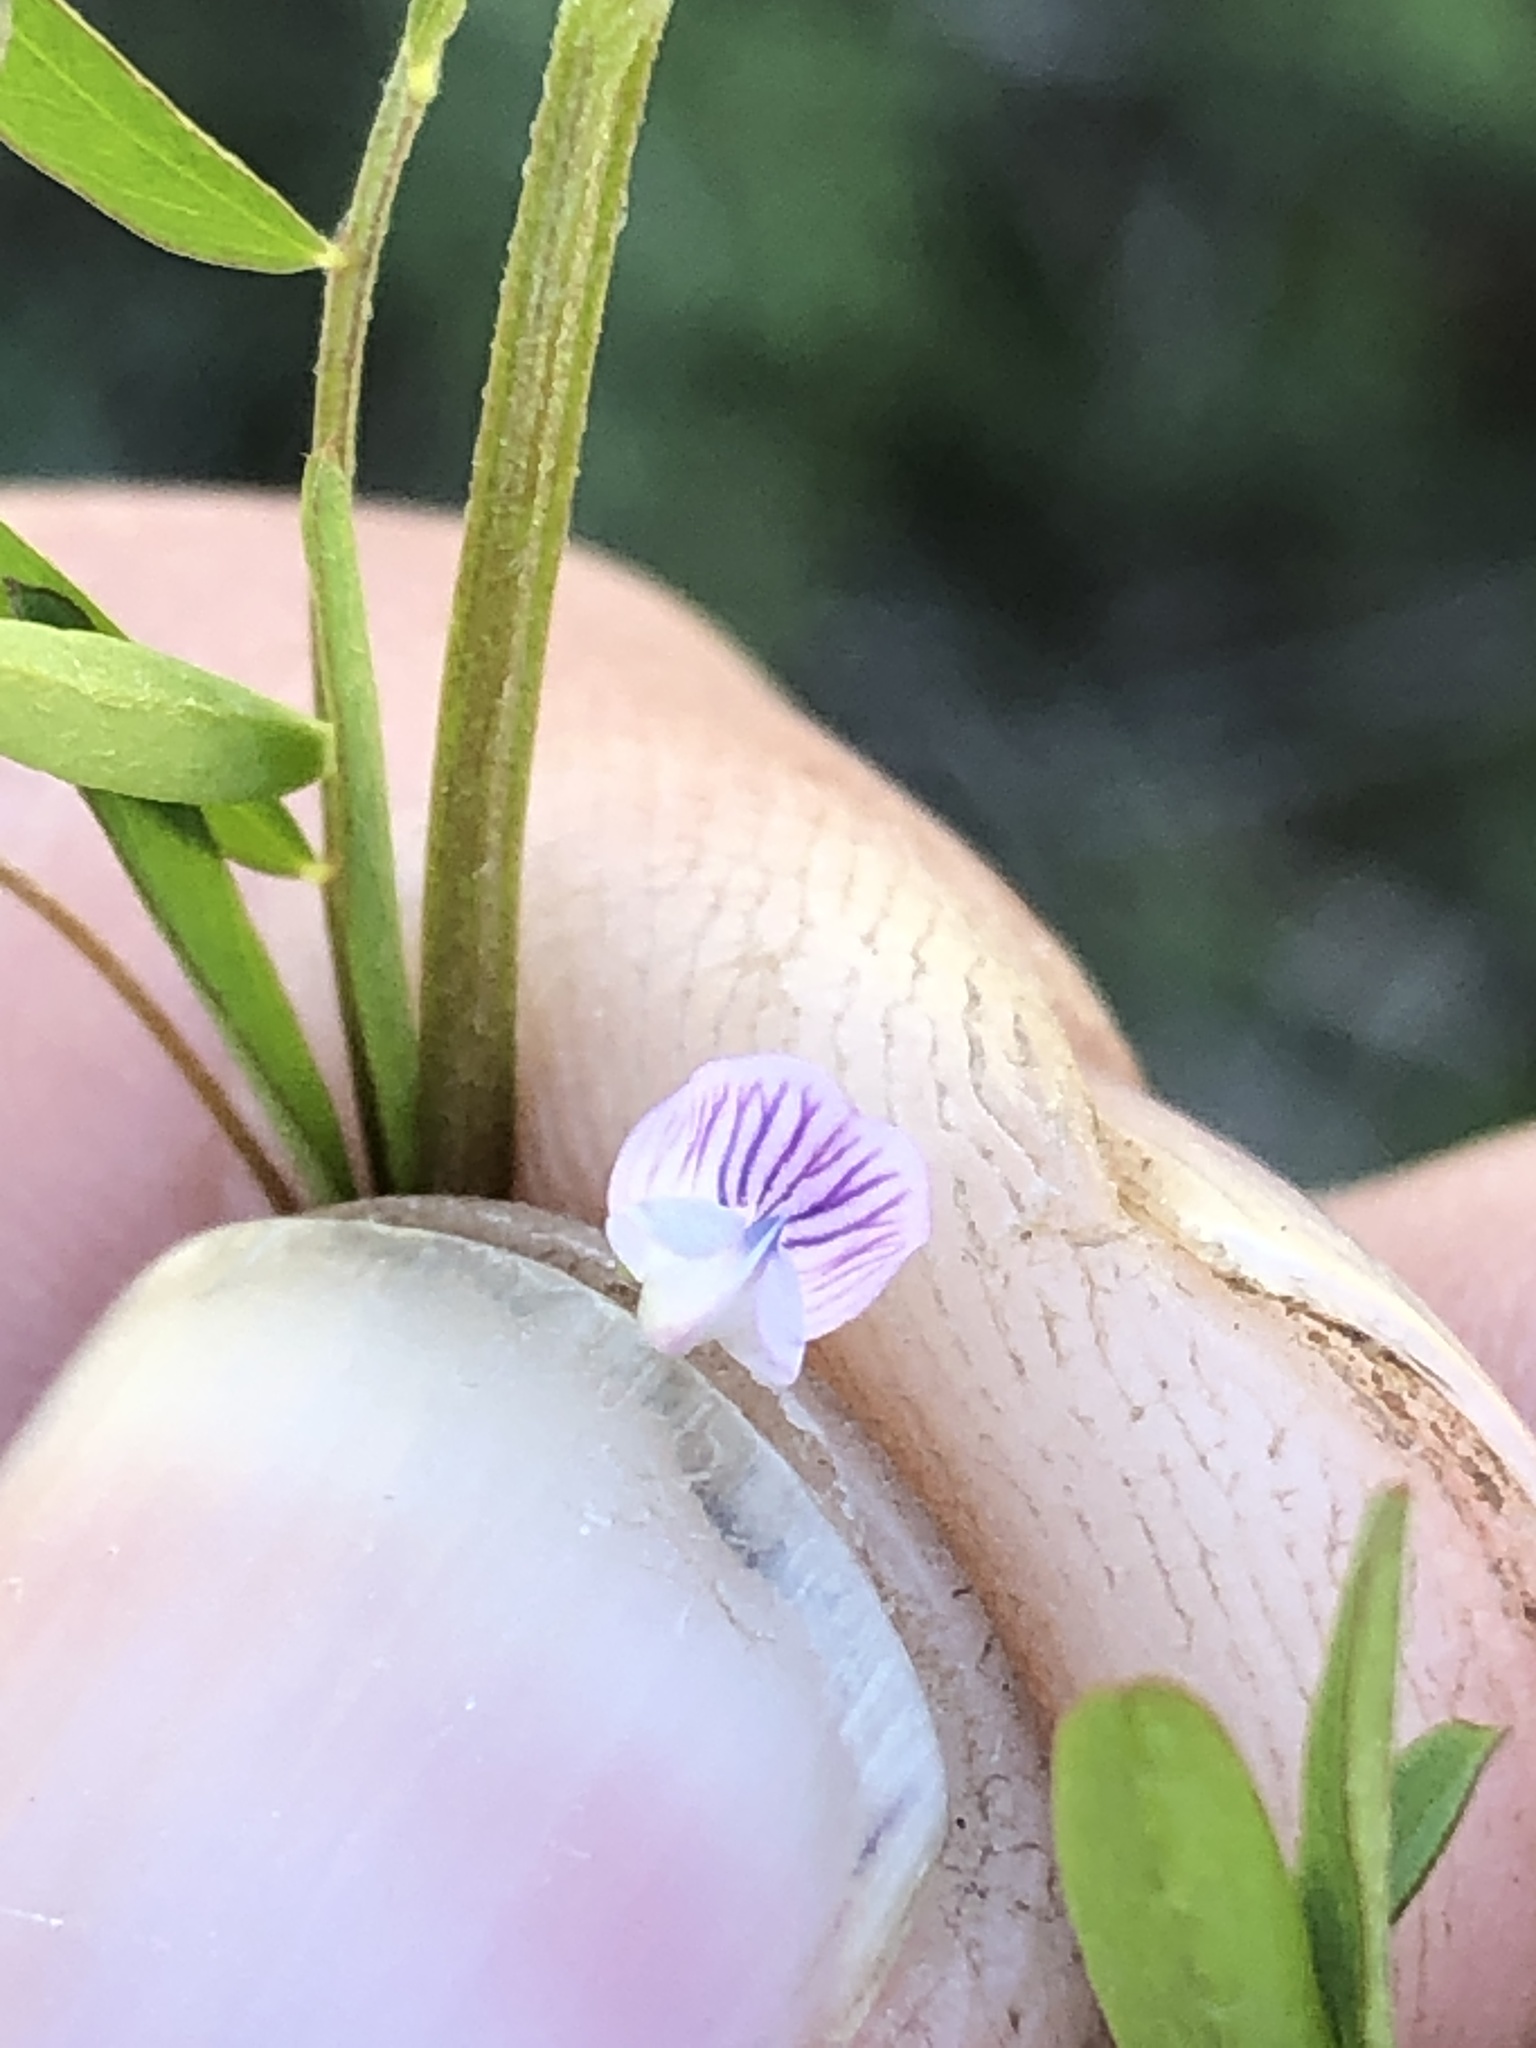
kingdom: Plantae
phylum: Tracheophyta
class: Magnoliopsida
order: Fabales
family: Fabaceae
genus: Vicia
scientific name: Vicia tetrasperma
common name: Smooth tare
